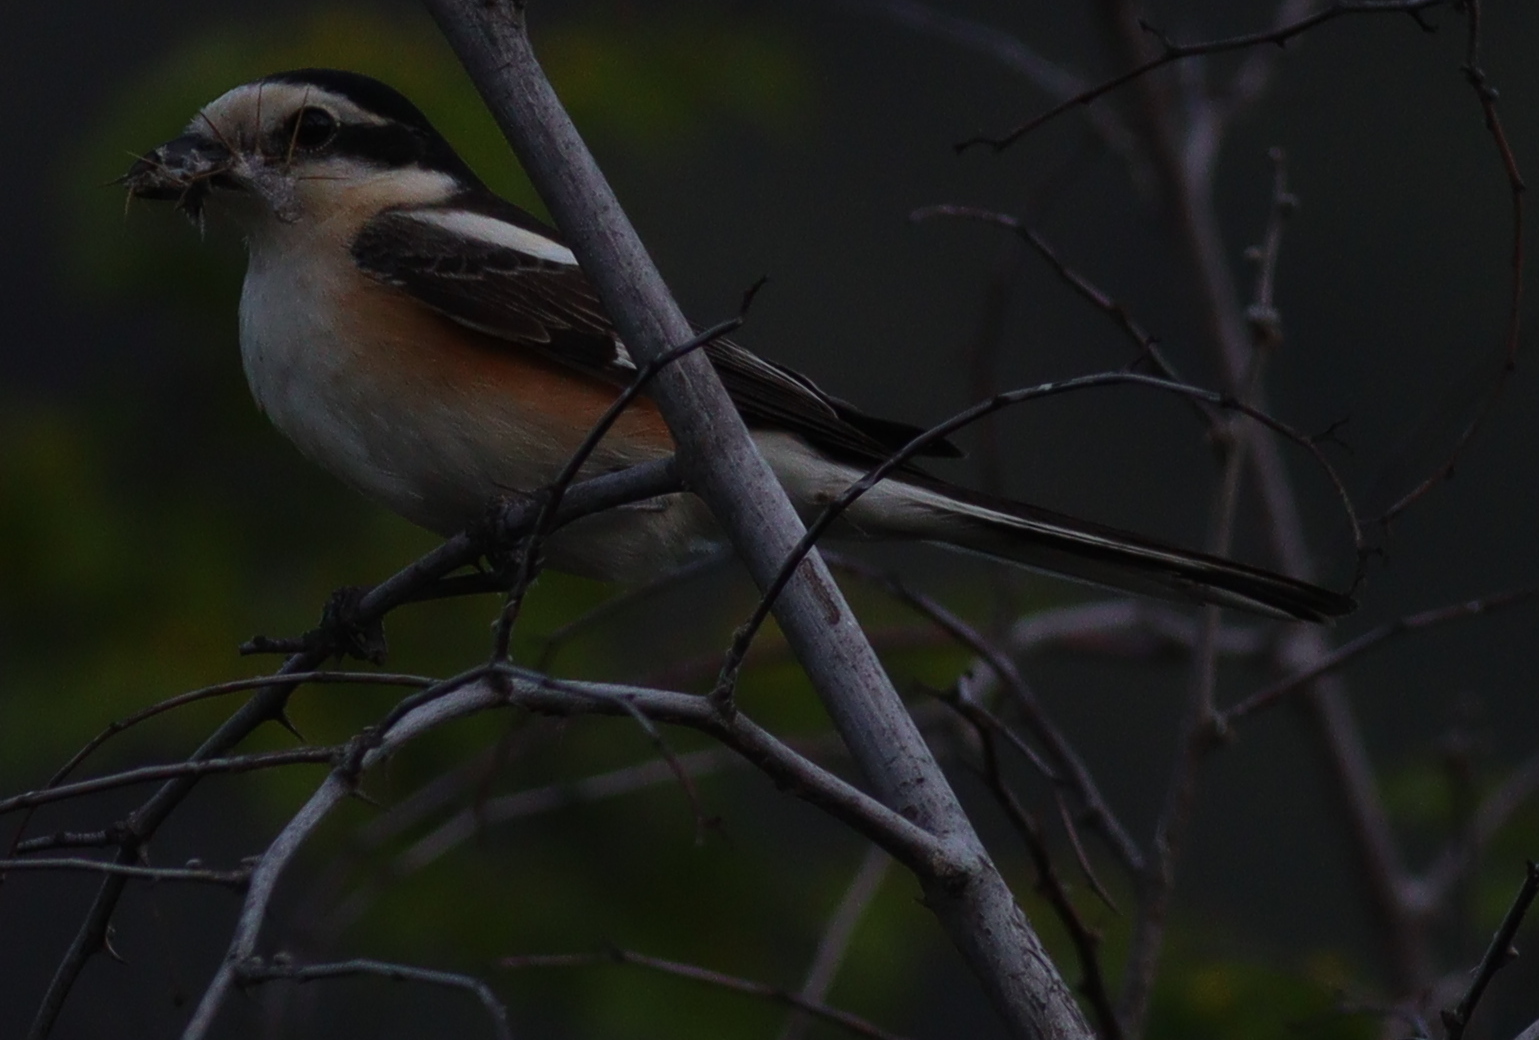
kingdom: Animalia
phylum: Chordata
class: Aves
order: Passeriformes
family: Laniidae
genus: Lanius
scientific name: Lanius nubicus
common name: Masked shrike
